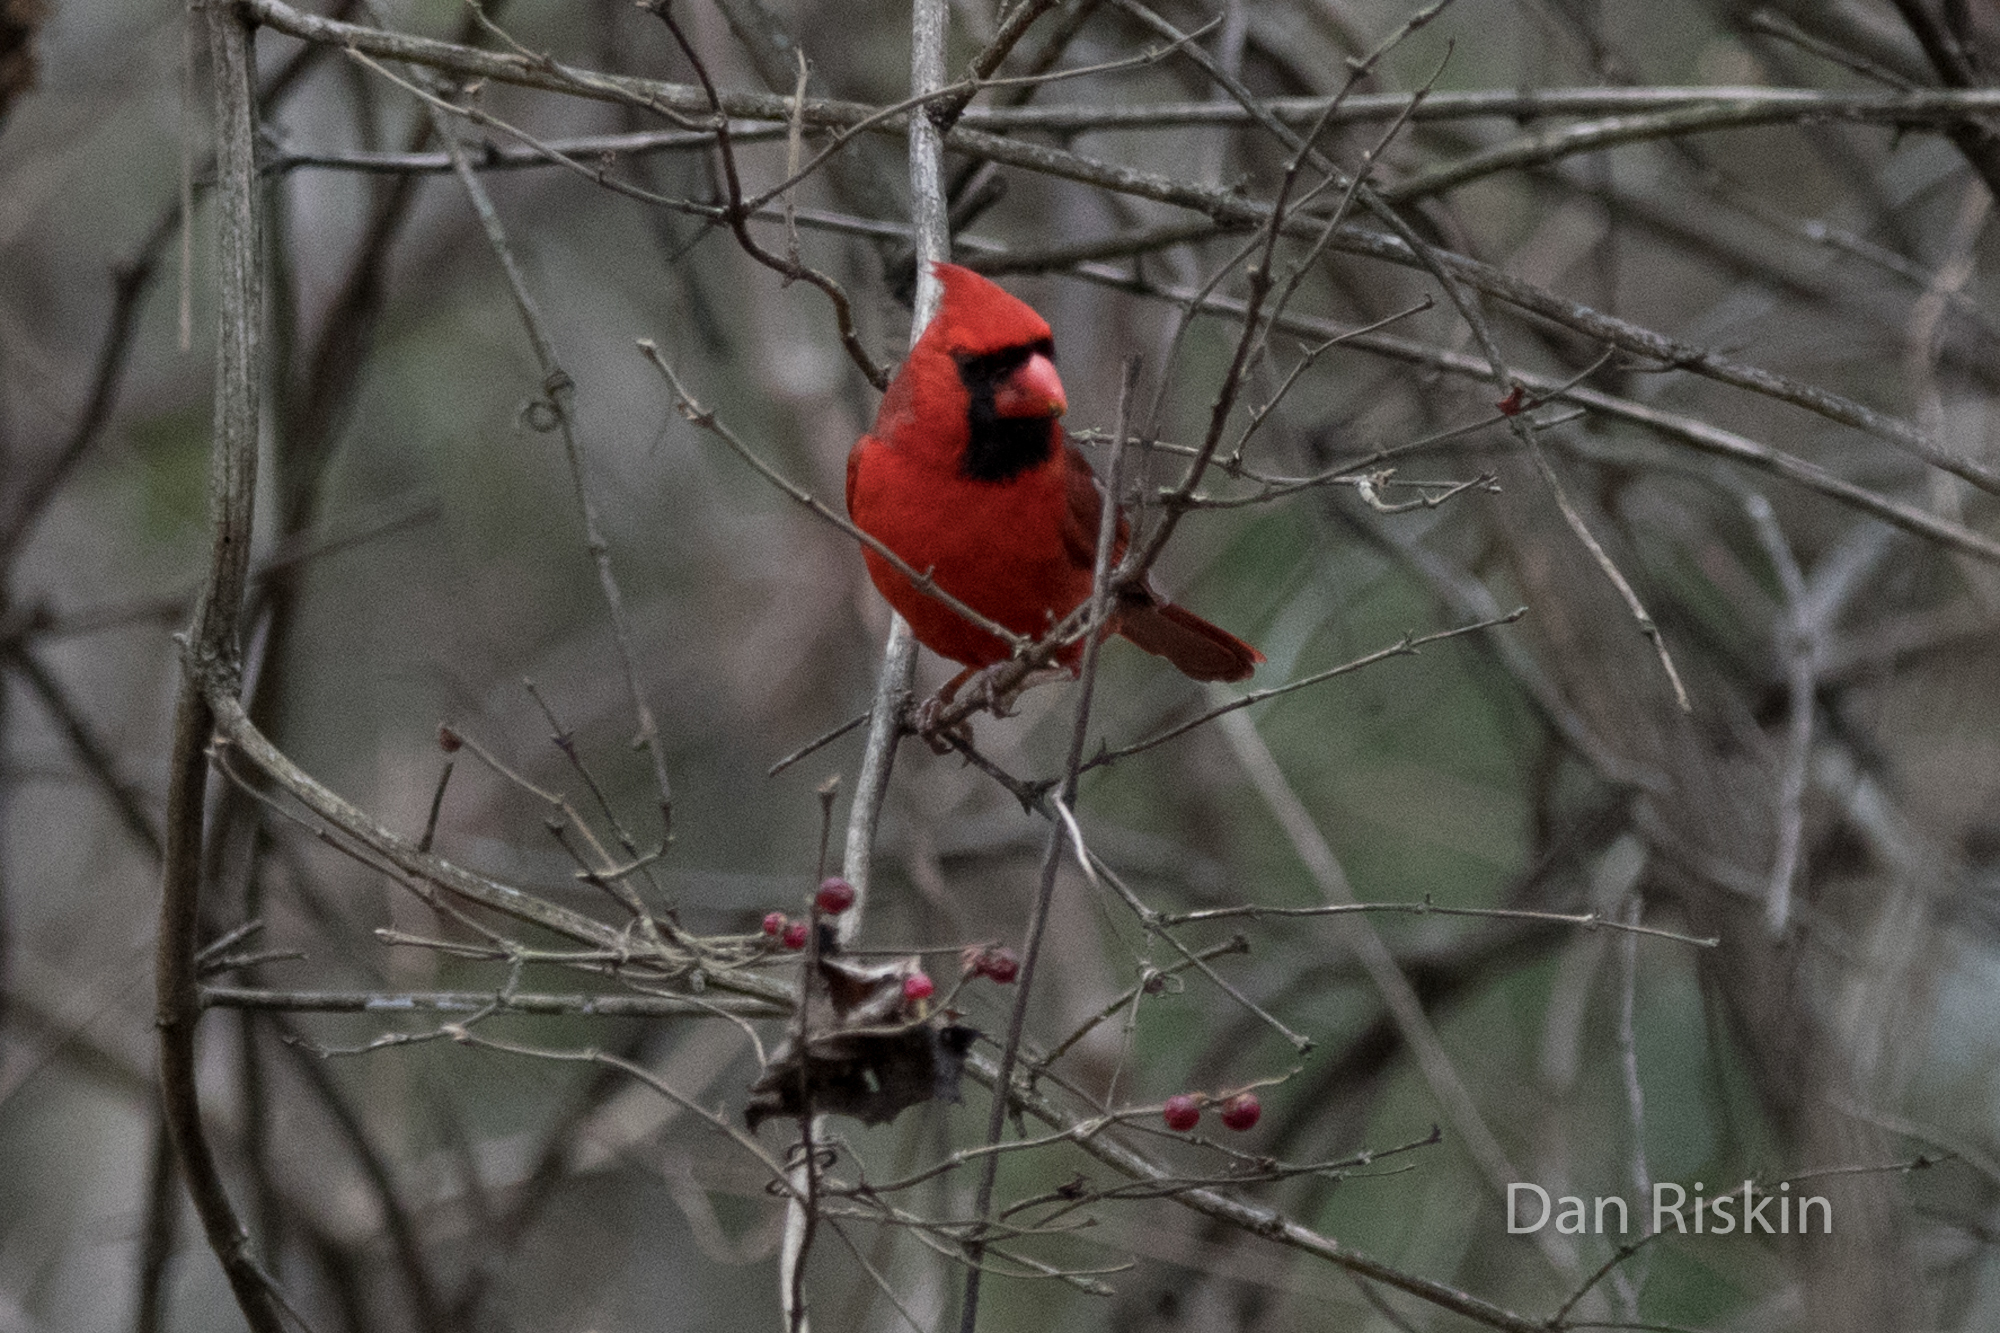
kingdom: Animalia
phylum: Chordata
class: Aves
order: Passeriformes
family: Cardinalidae
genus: Cardinalis
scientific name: Cardinalis cardinalis
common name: Northern cardinal
